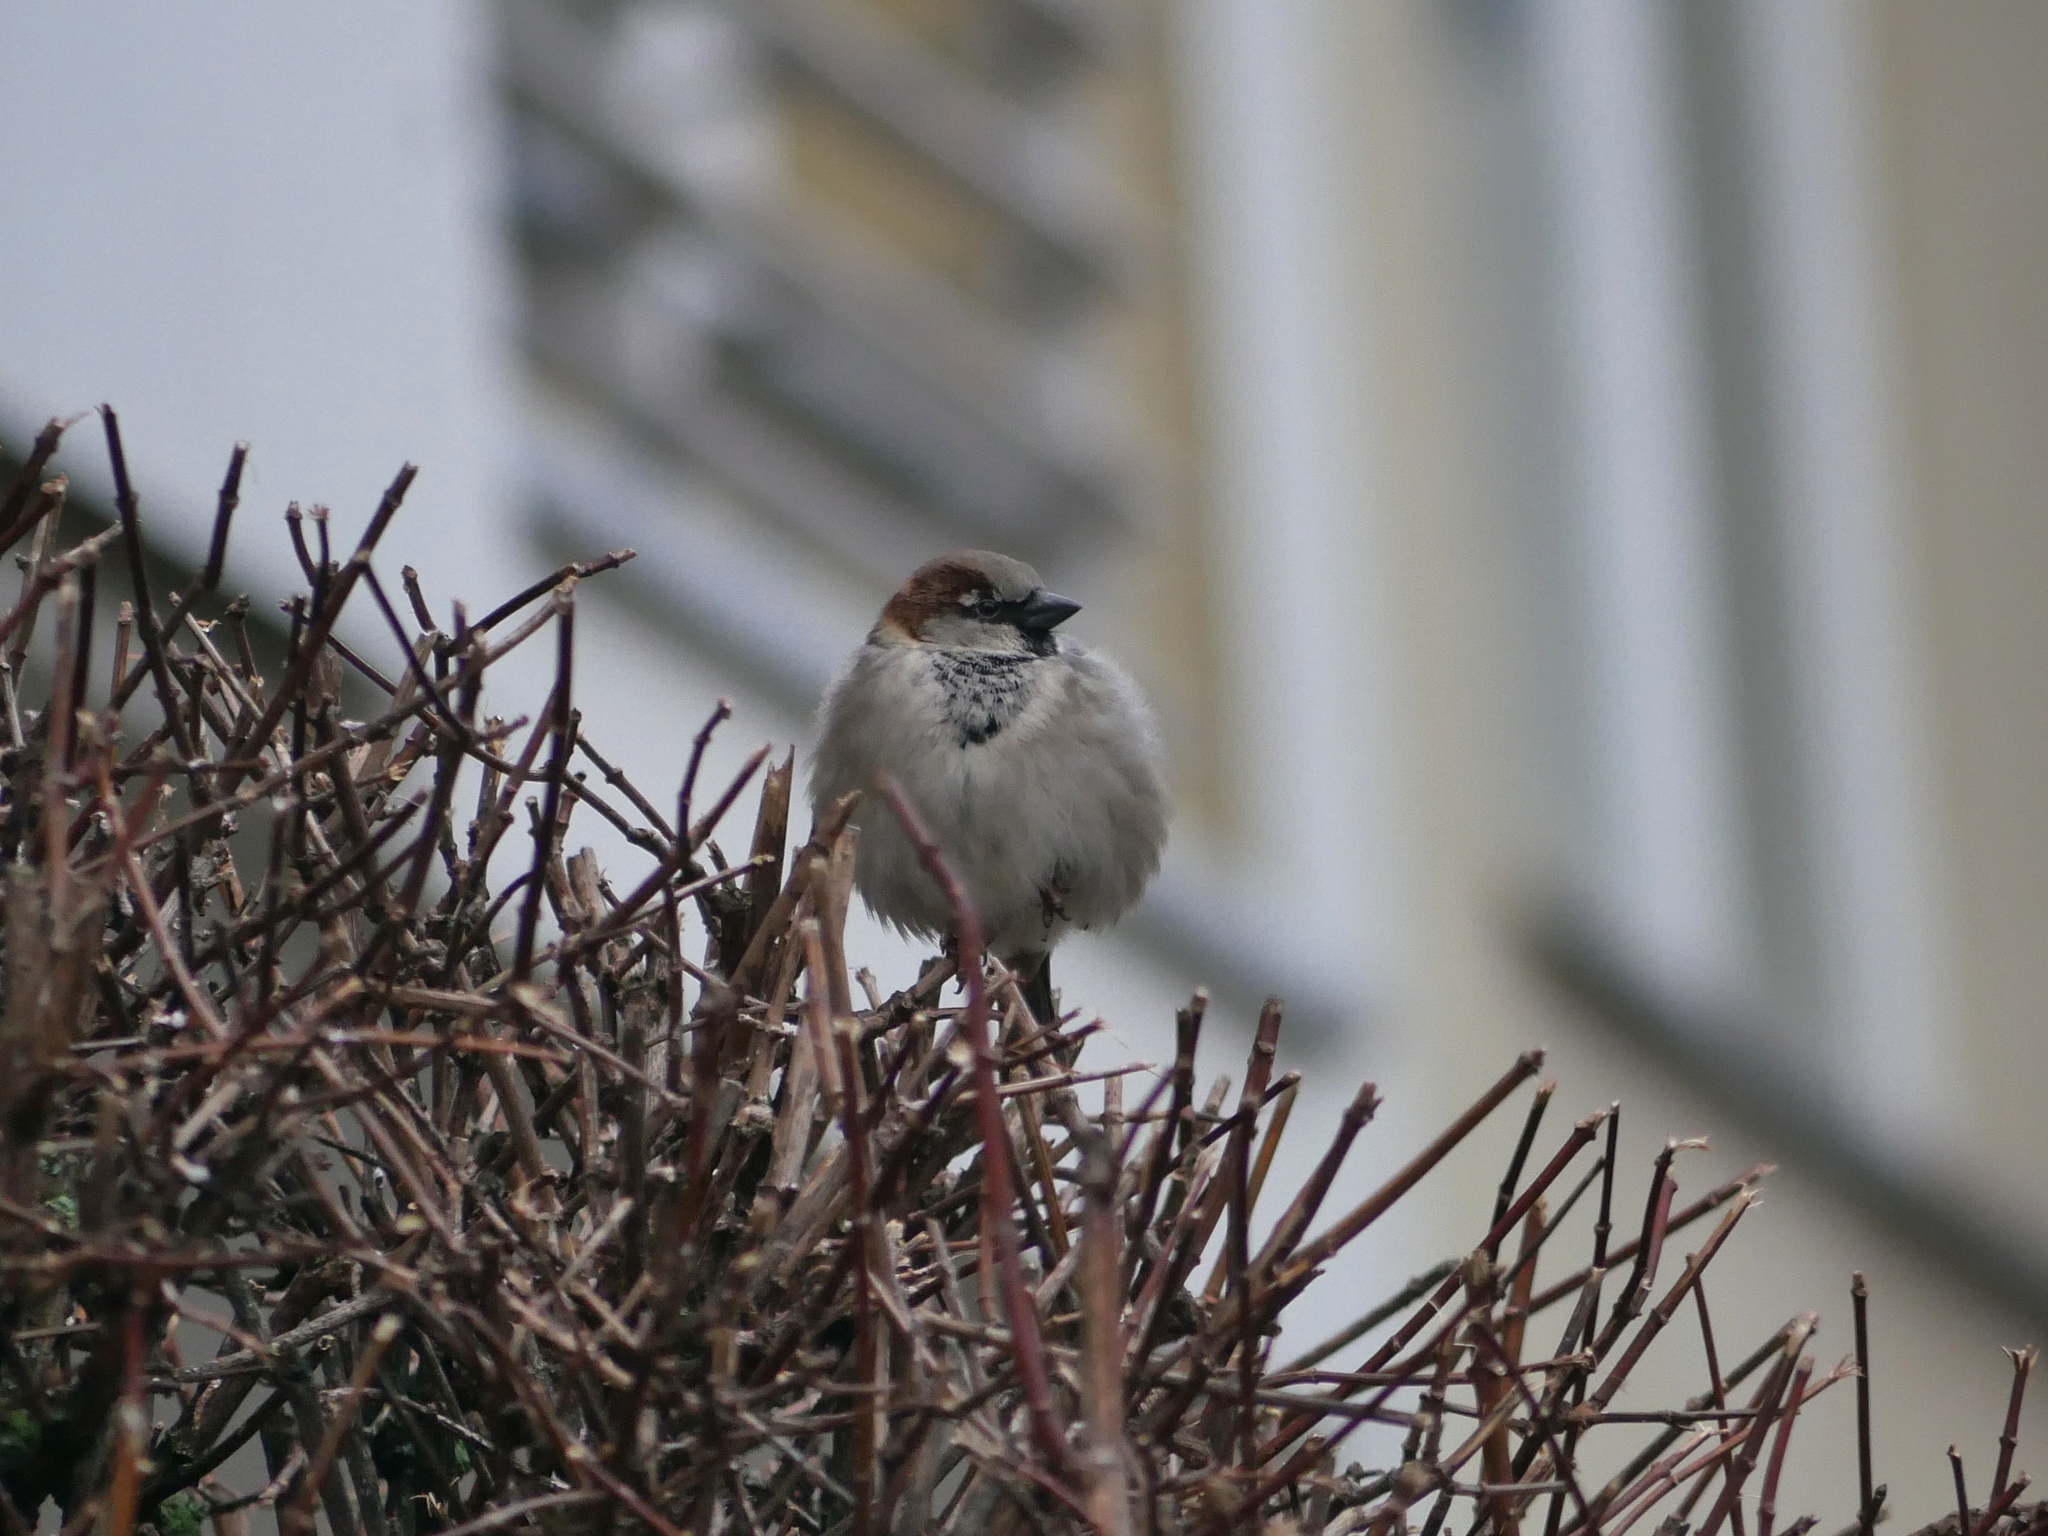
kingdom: Animalia
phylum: Chordata
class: Aves
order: Passeriformes
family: Passeridae
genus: Passer
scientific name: Passer domesticus
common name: House sparrow
